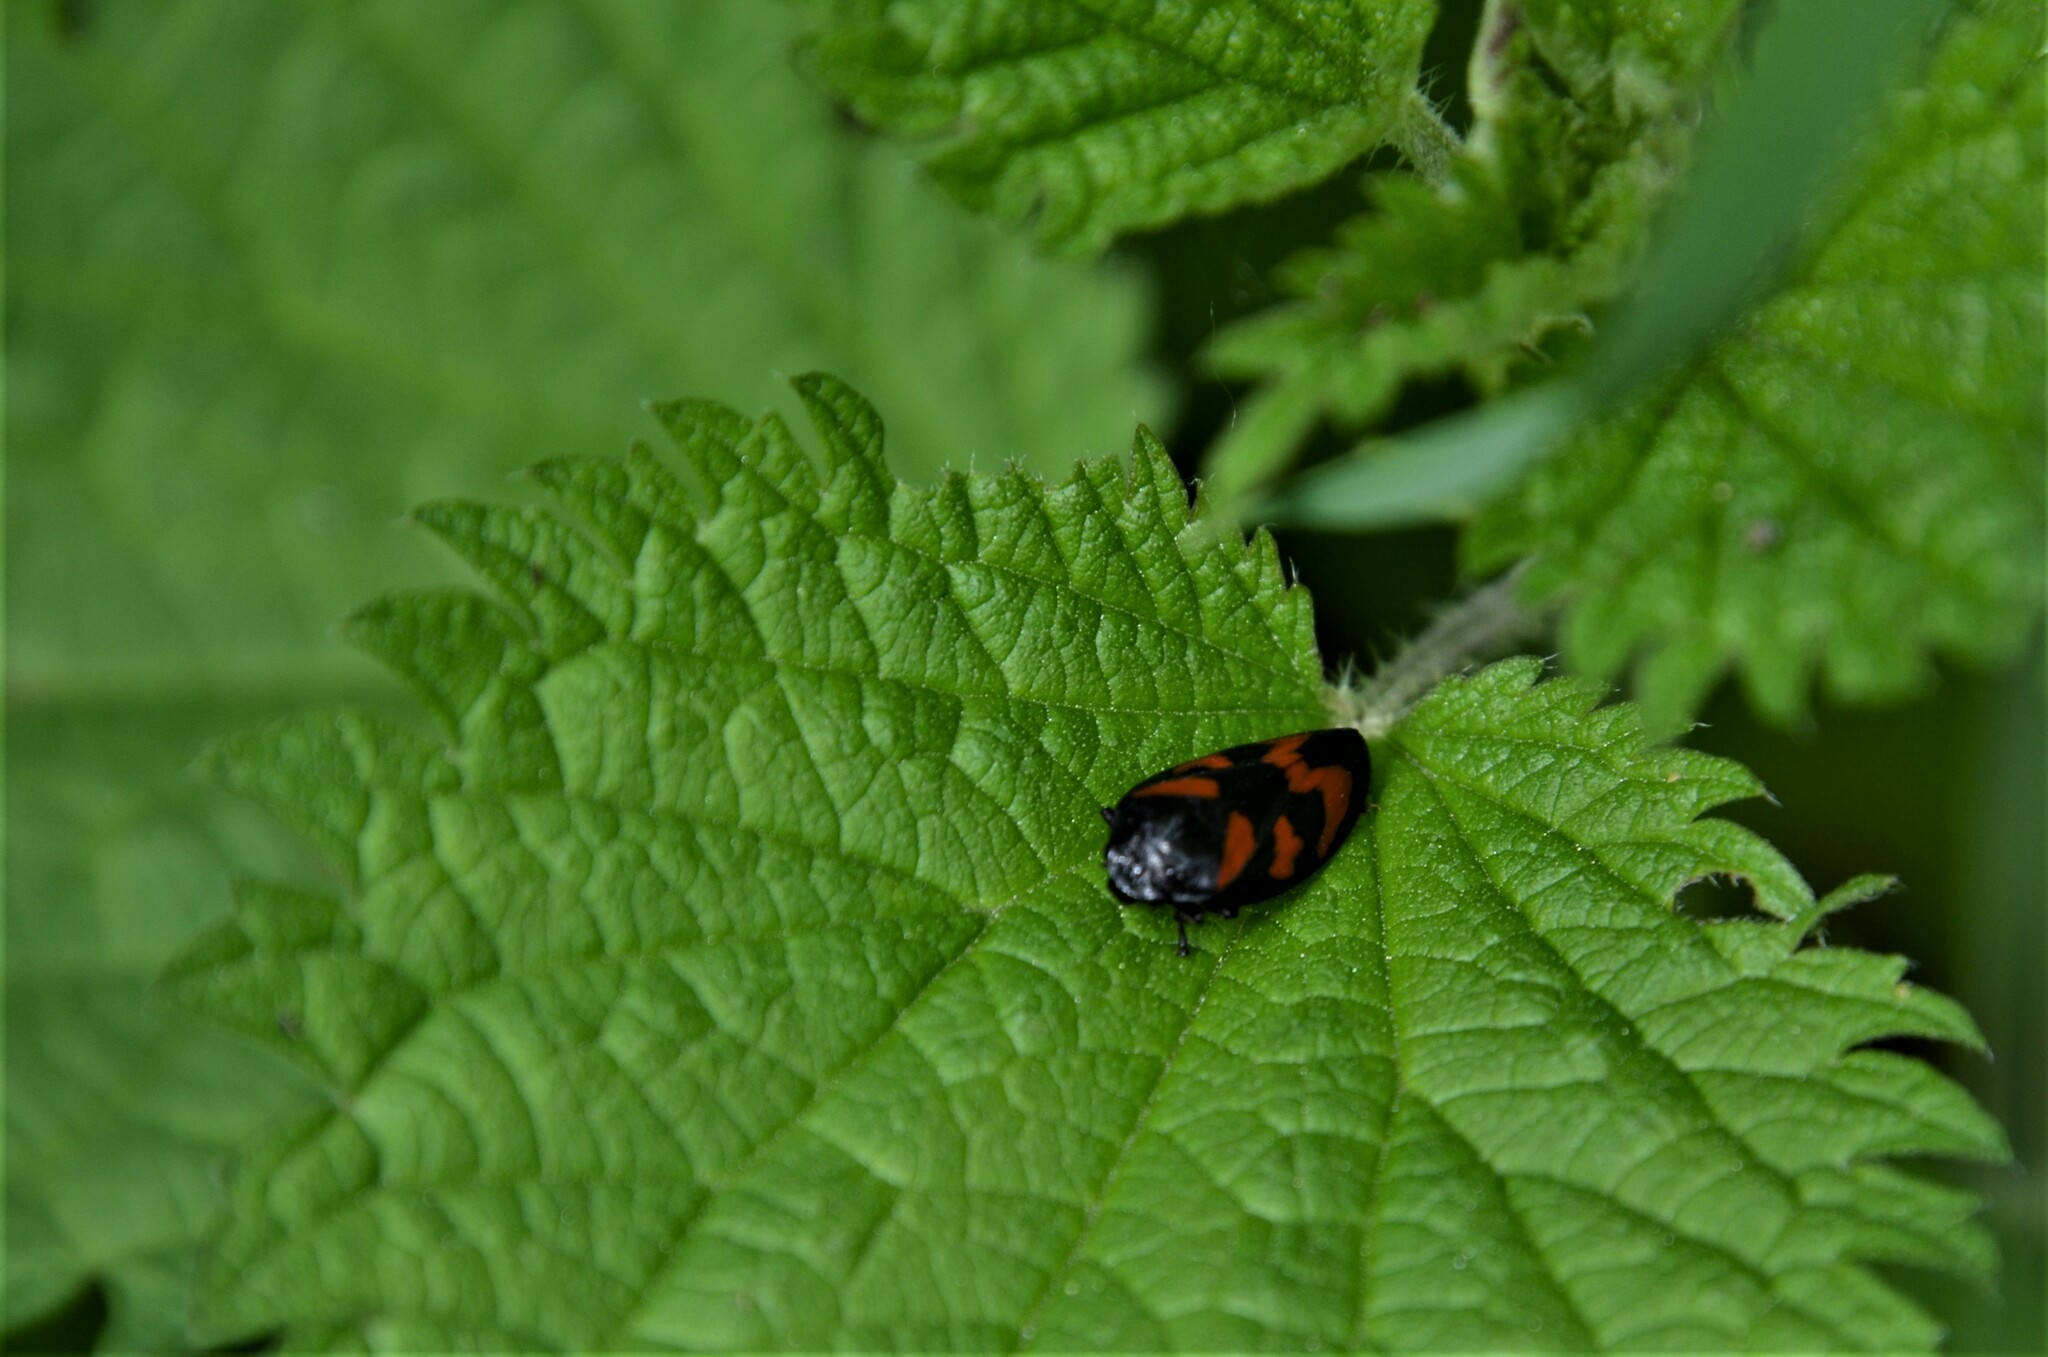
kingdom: Animalia
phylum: Arthropoda
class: Insecta
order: Hemiptera
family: Cercopidae
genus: Cercopis
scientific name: Cercopis vulnerata
